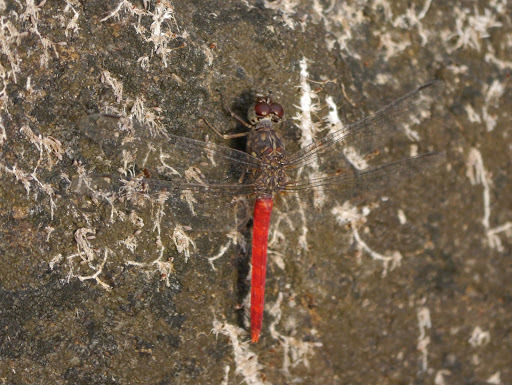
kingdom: Animalia
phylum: Arthropoda
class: Insecta
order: Odonata
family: Libellulidae
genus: Bradinopyga
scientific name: Bradinopyga strachani
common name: Red rock-dweller
